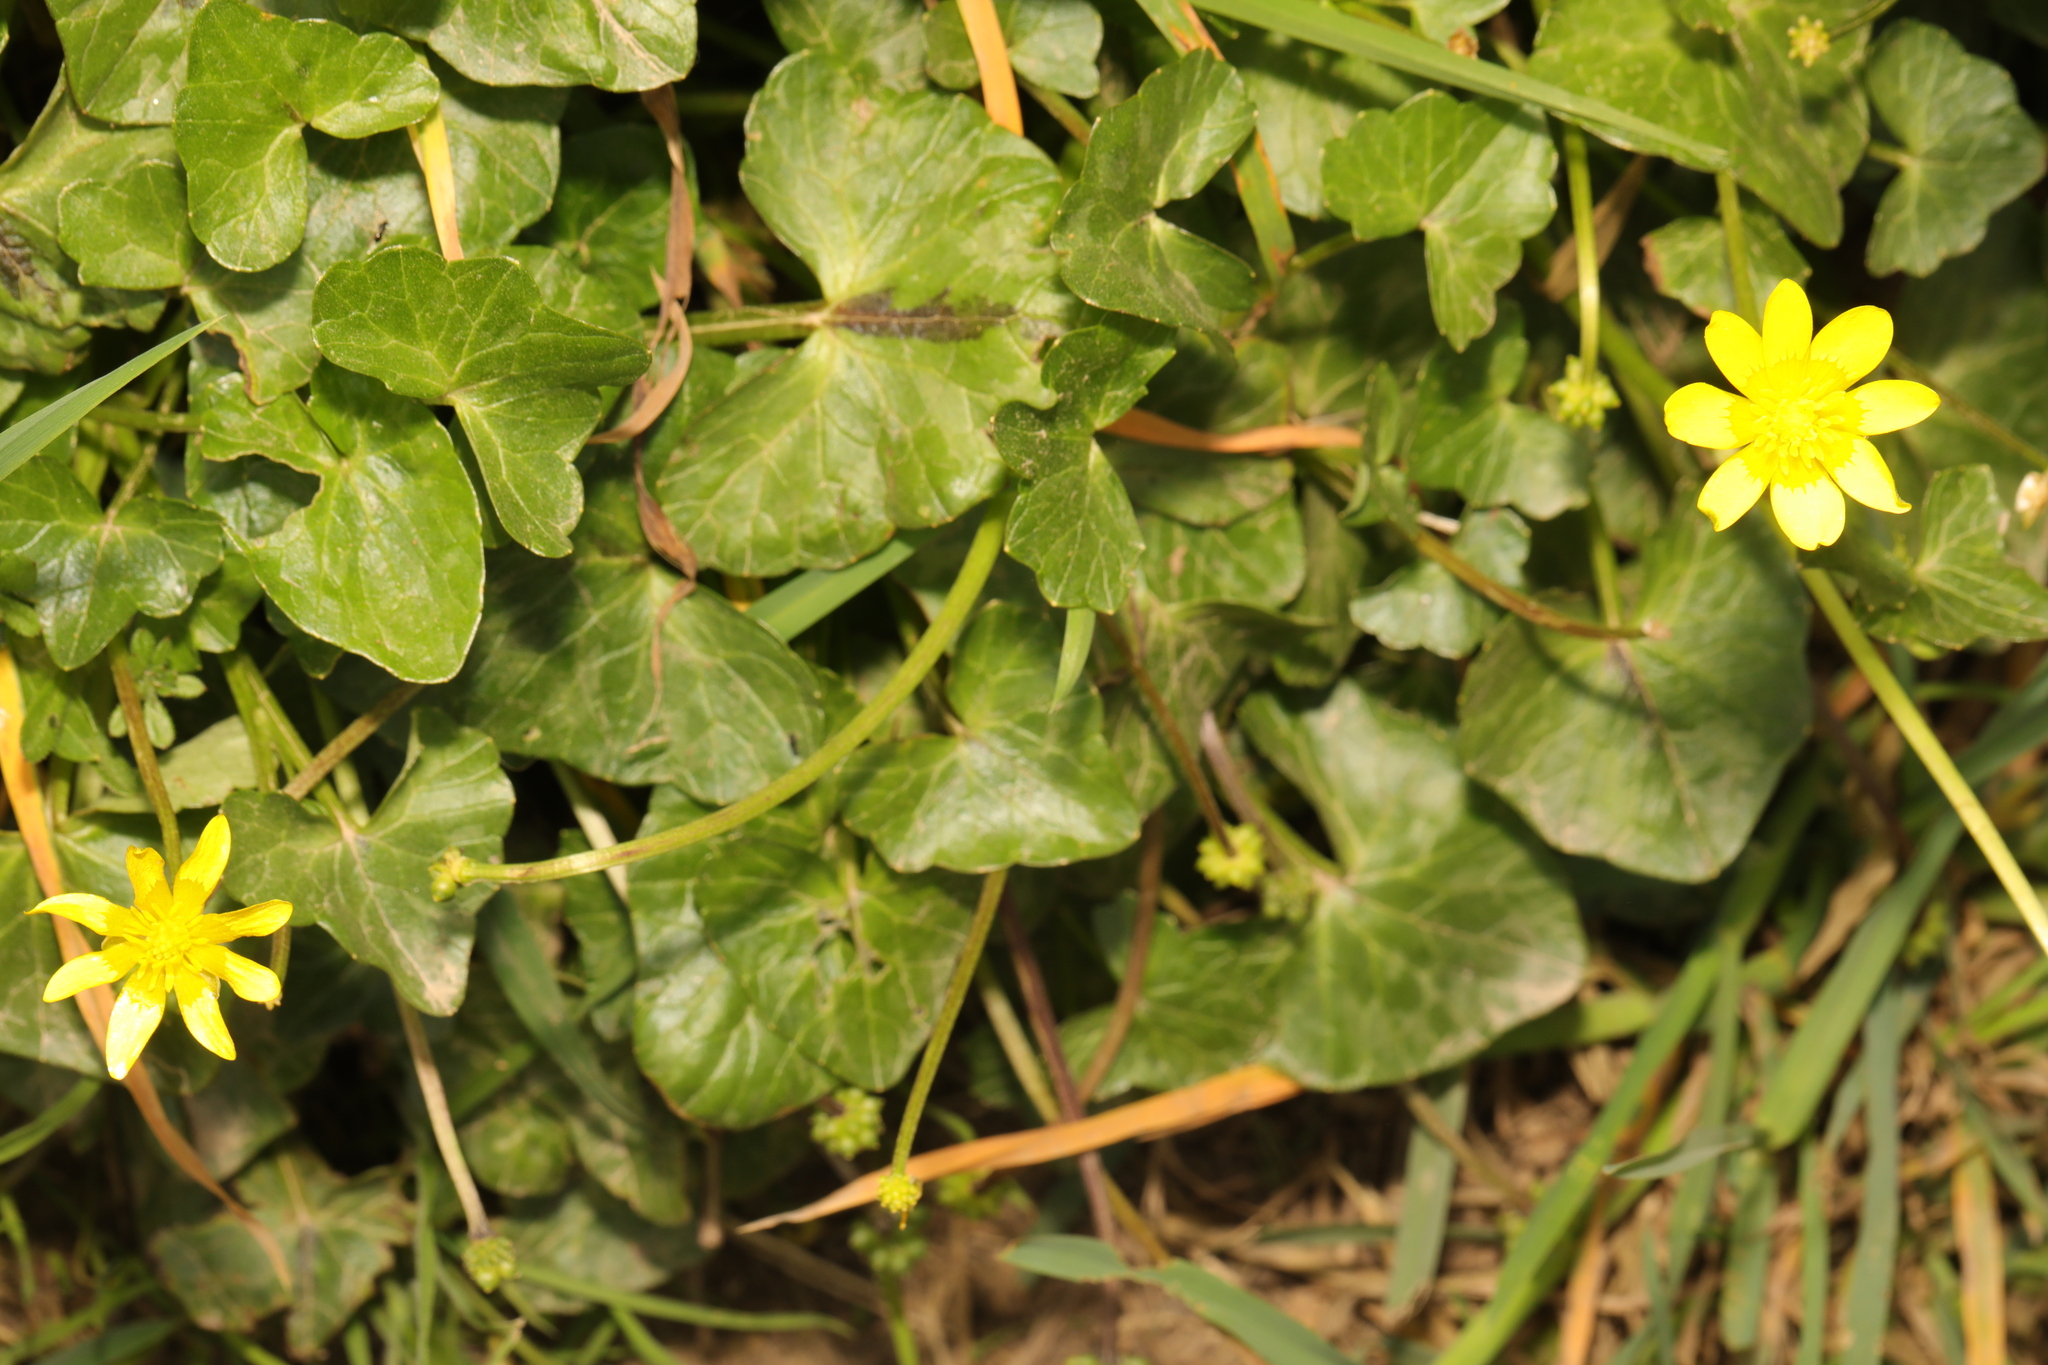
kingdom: Plantae
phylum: Tracheophyta
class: Magnoliopsida
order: Ranunculales
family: Ranunculaceae
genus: Ficaria
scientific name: Ficaria verna
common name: Lesser celandine
